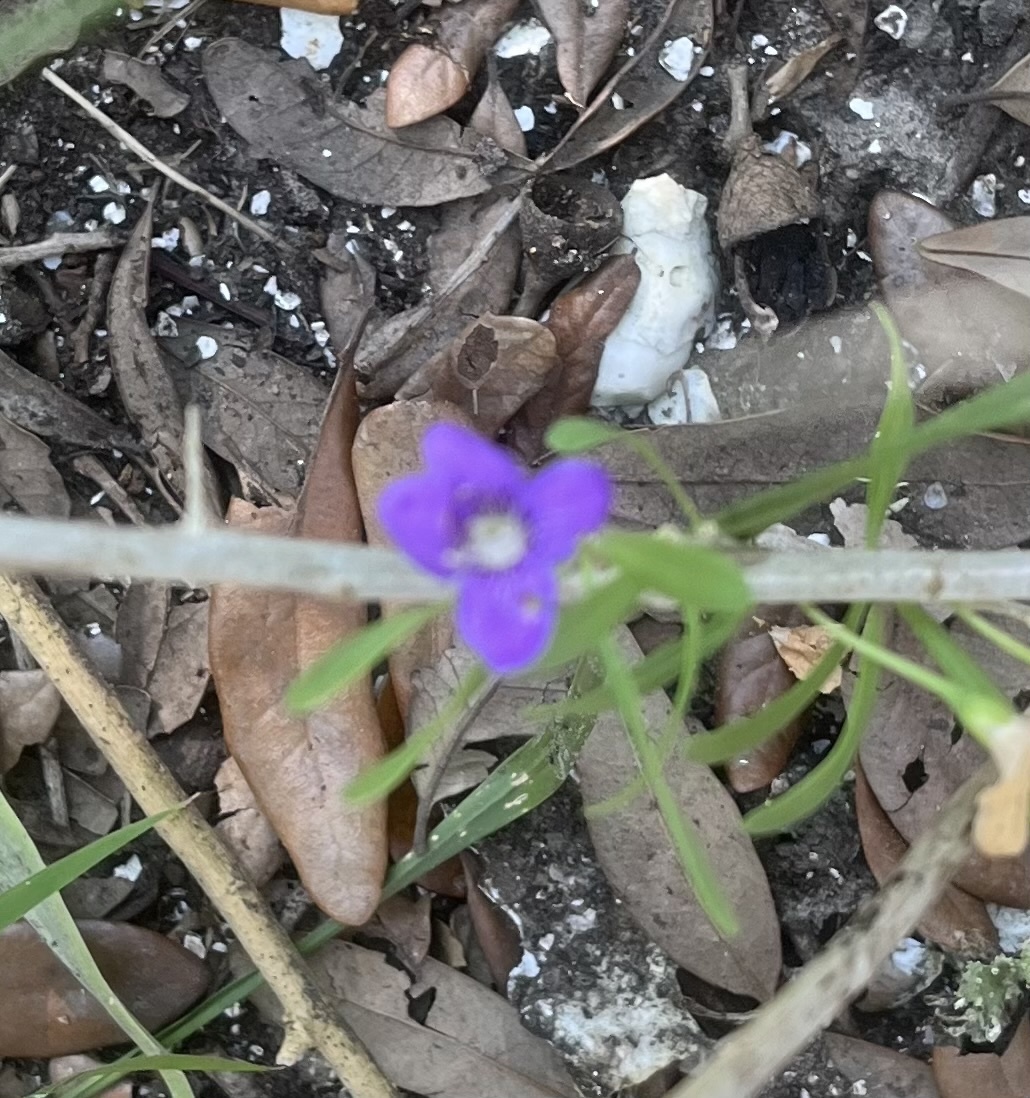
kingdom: Plantae
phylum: Tracheophyta
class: Magnoliopsida
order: Solanales
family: Solanaceae
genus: Lycium
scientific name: Lycium carolinianum
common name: Christmasberry
